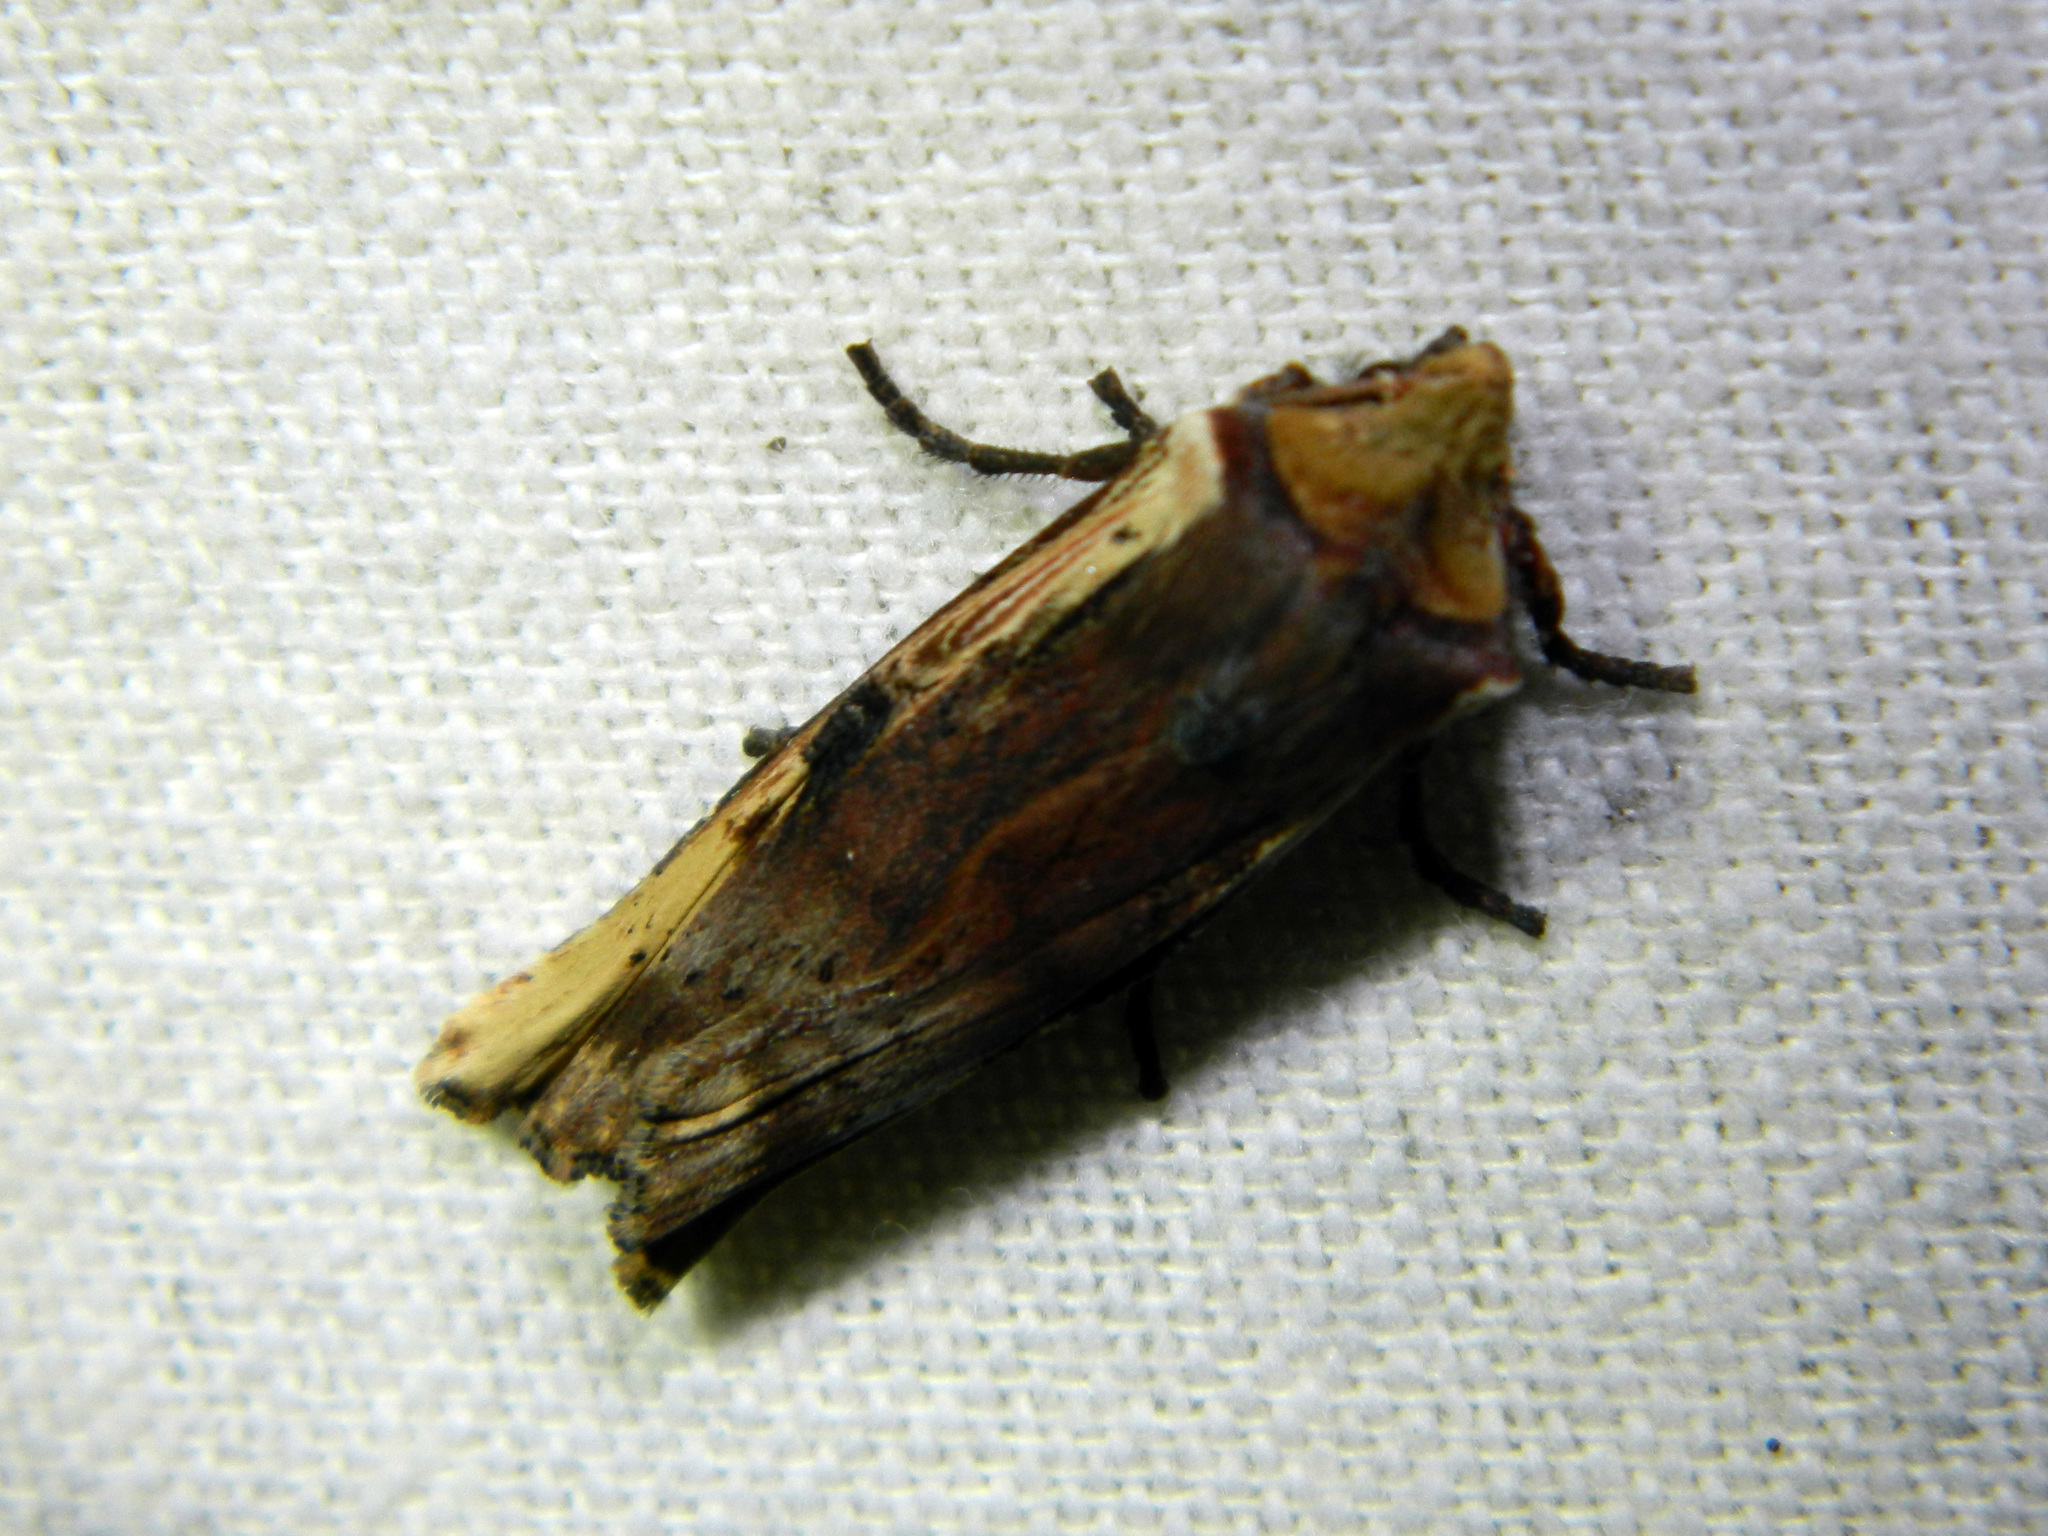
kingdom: Animalia
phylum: Arthropoda
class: Insecta
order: Lepidoptera
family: Noctuidae
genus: Xylena
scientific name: Xylena curvimacula
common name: Dot-and-dash swordgrass moth
